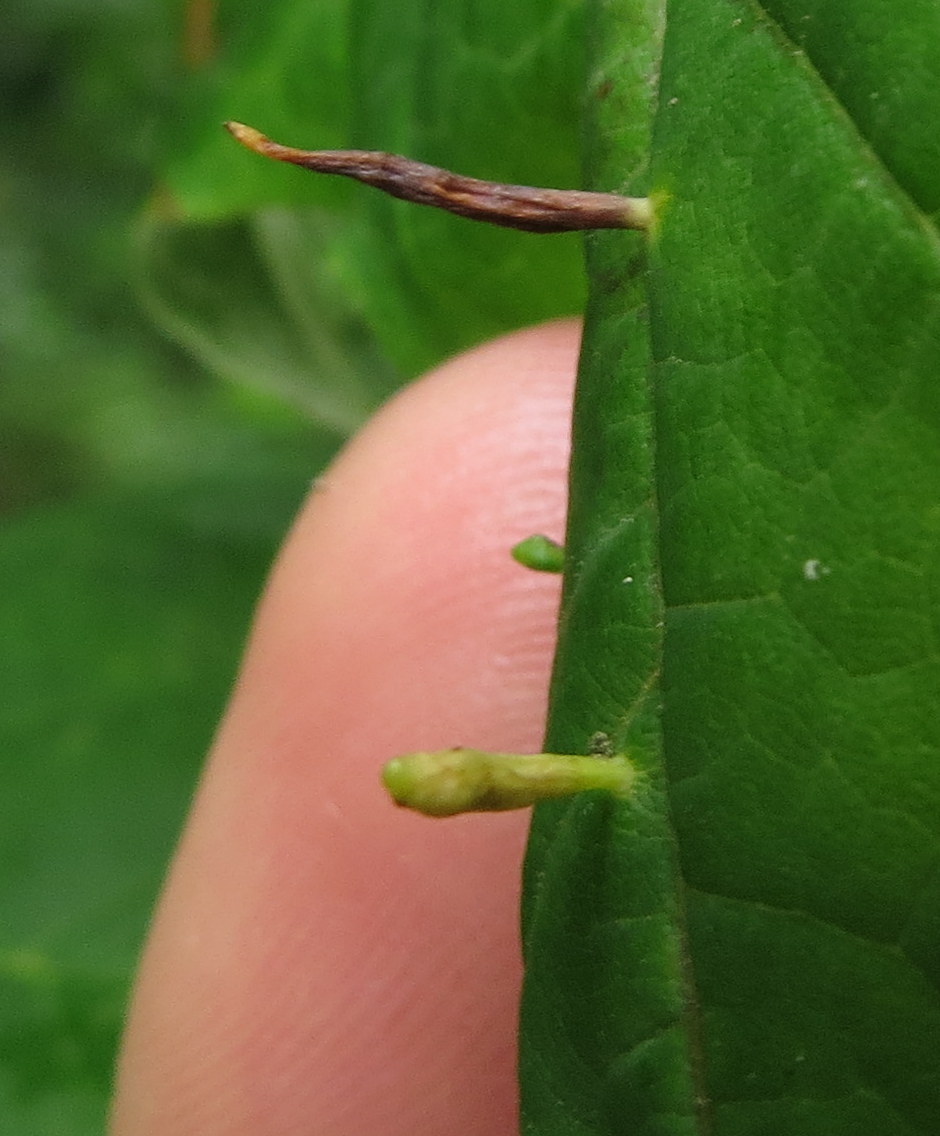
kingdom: Animalia
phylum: Arthropoda
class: Arachnida
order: Trombidiformes
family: Eriophyidae
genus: Vasates
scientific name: Vasates aceriscrumena
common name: Maple spindle gall mite
